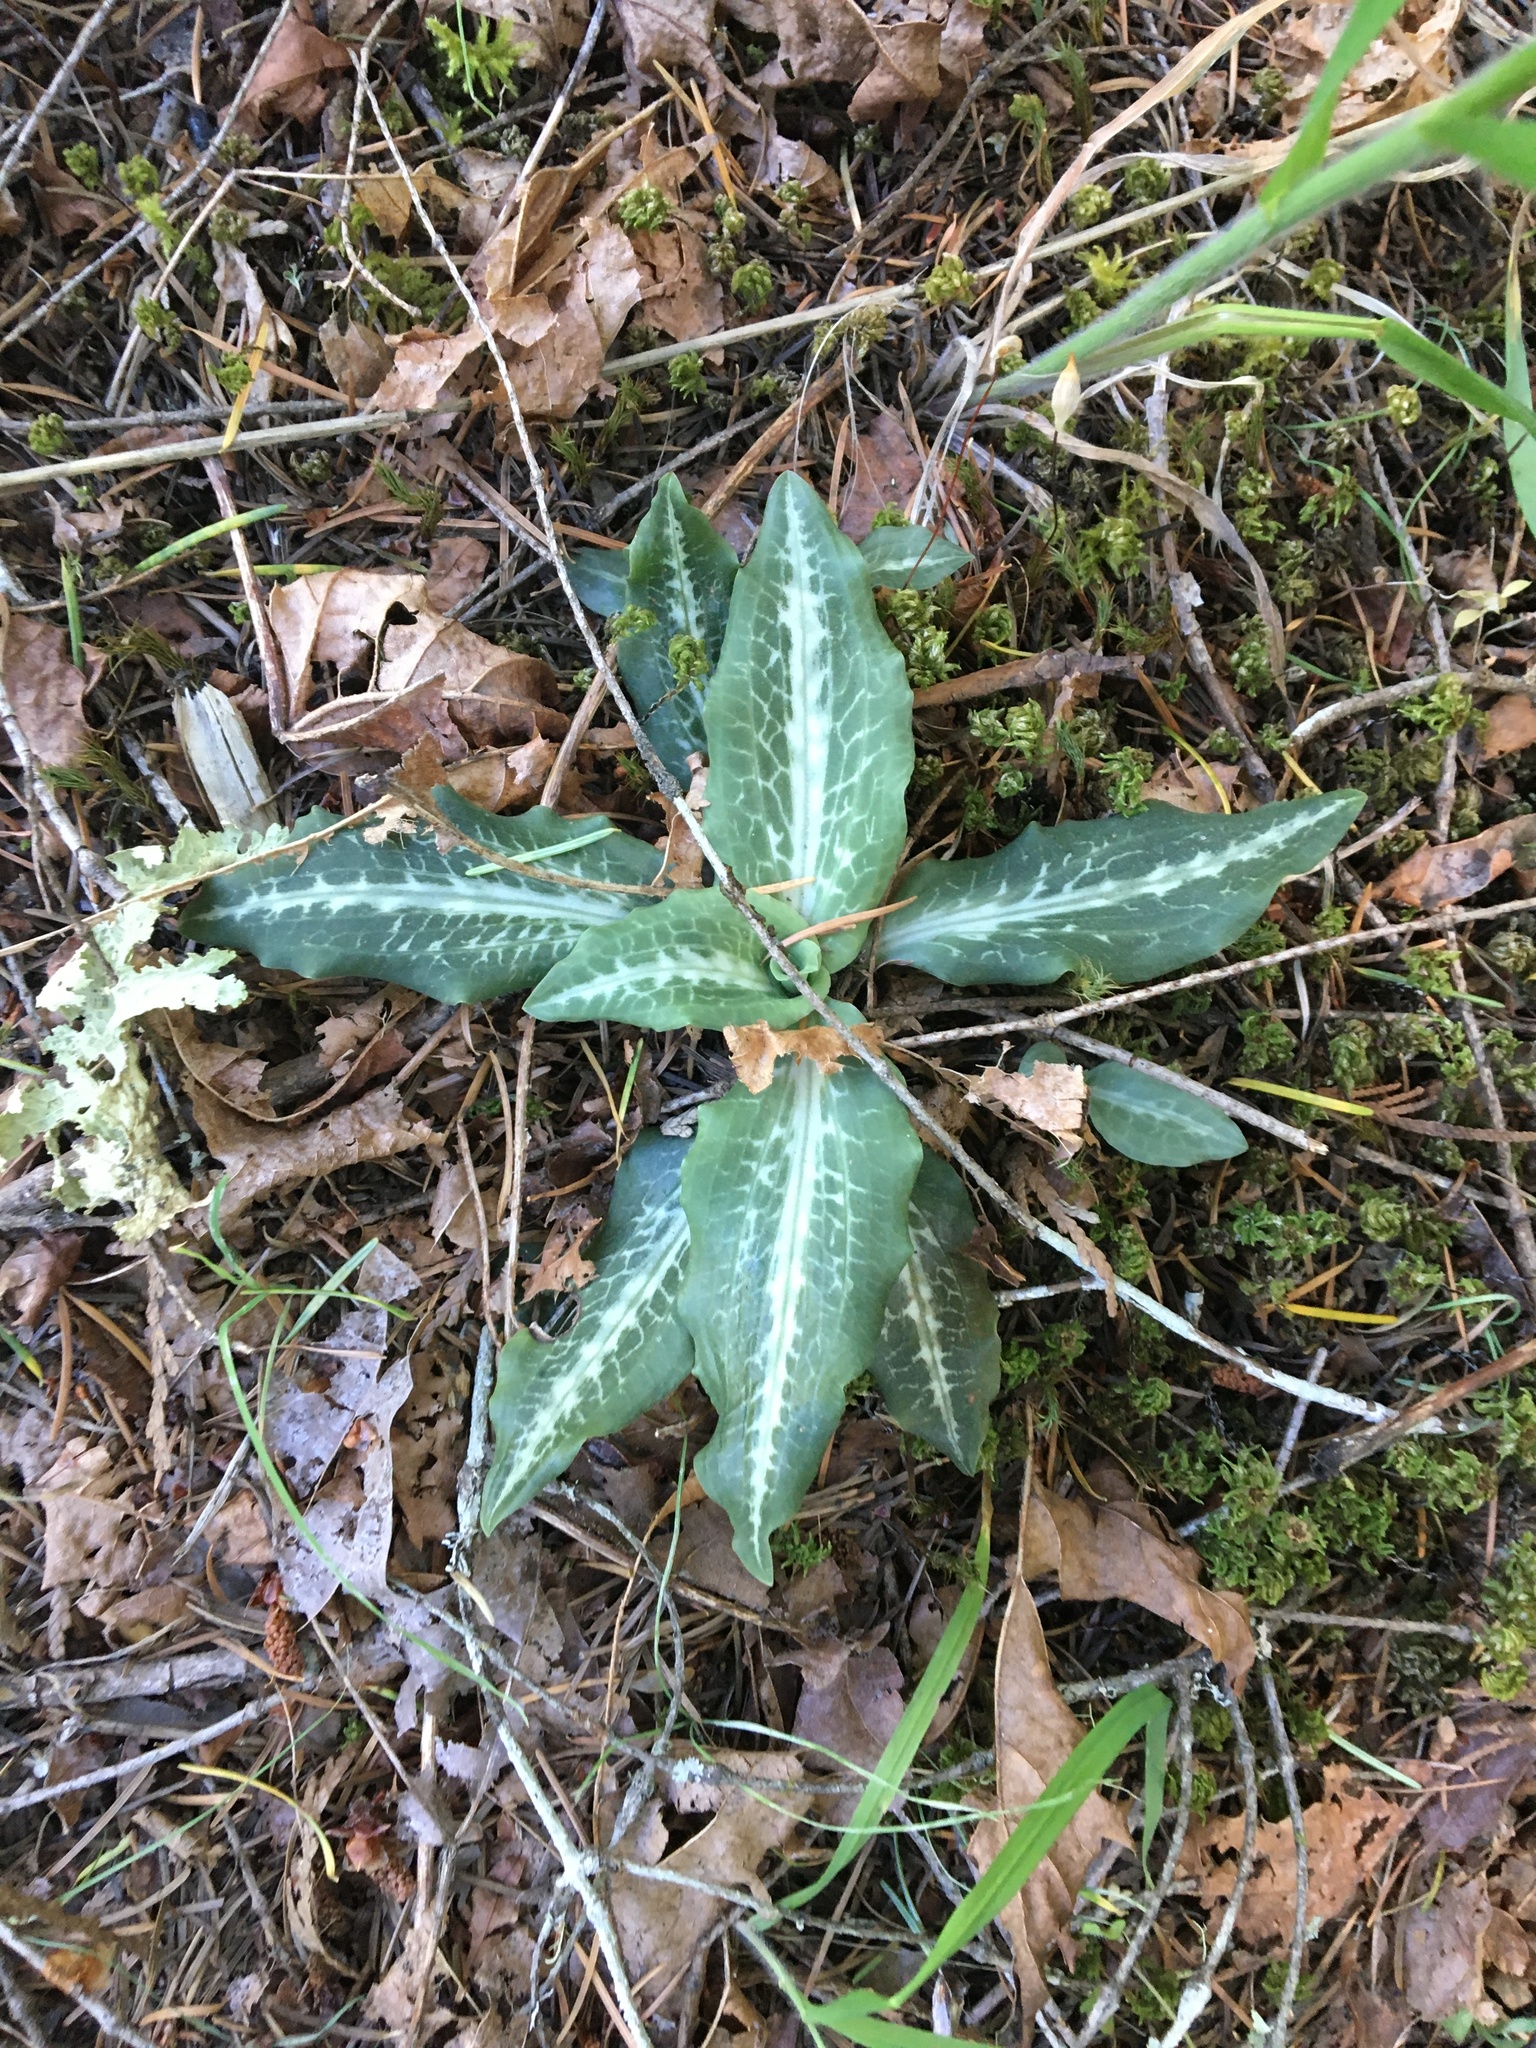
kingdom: Plantae
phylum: Tracheophyta
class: Liliopsida
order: Asparagales
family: Orchidaceae
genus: Goodyera
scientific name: Goodyera oblongifolia
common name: Giant rattlesnake-plantain
